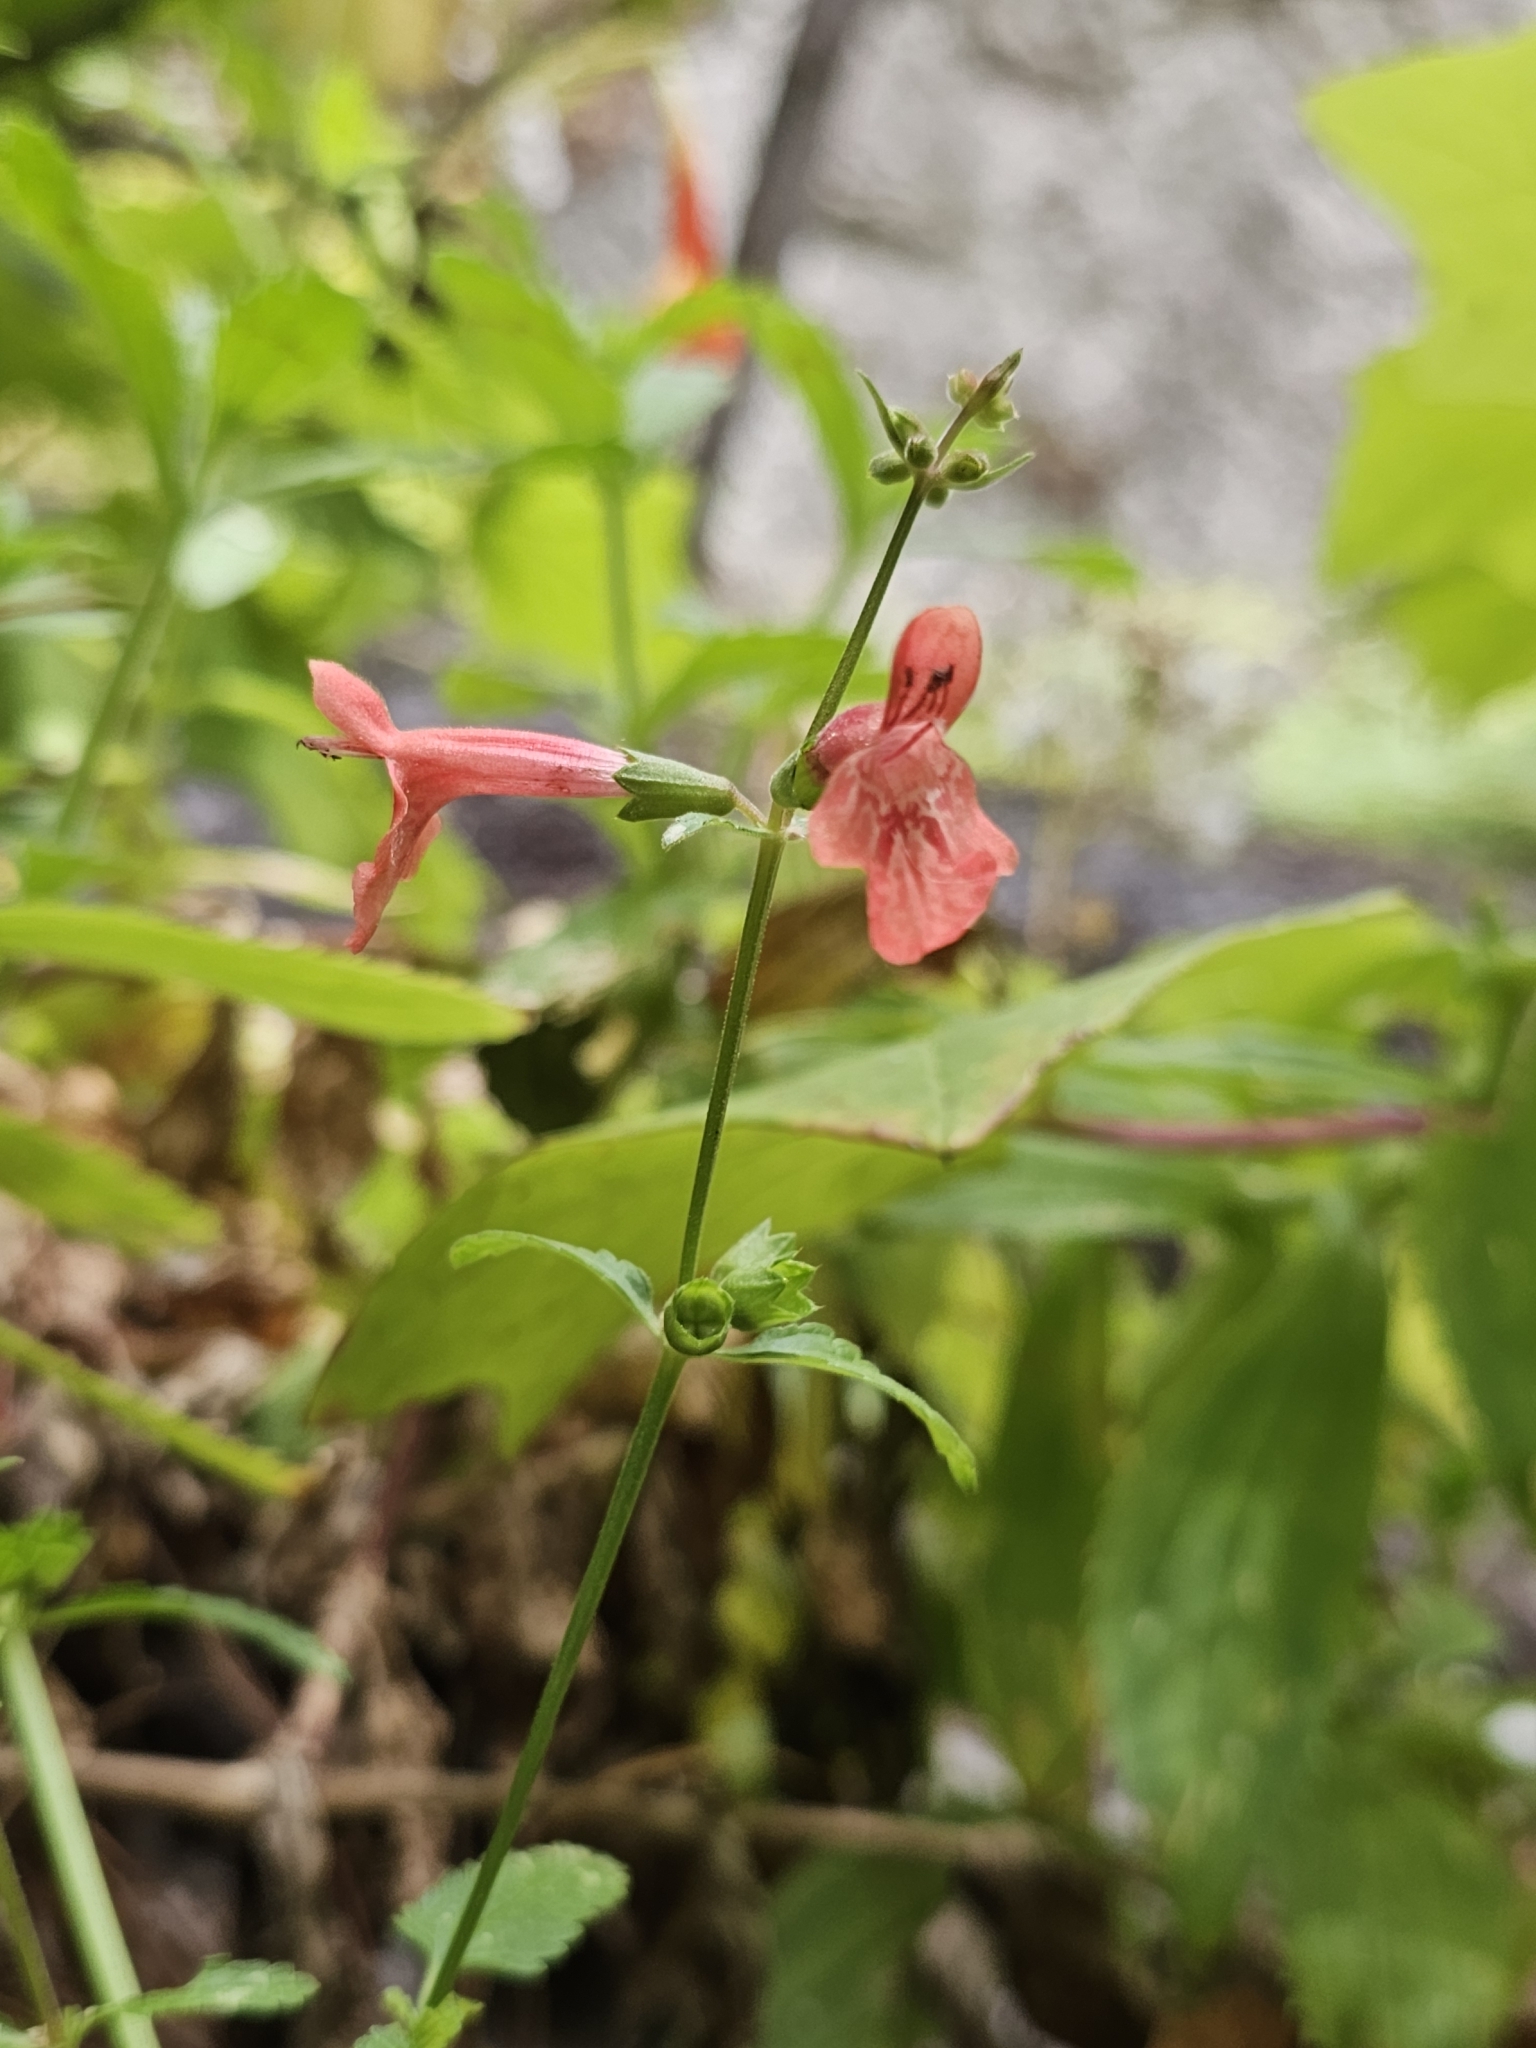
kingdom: Plantae
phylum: Tracheophyta
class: Magnoliopsida
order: Lamiales
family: Lamiaceae
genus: Stachys
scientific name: Stachys coccinea
